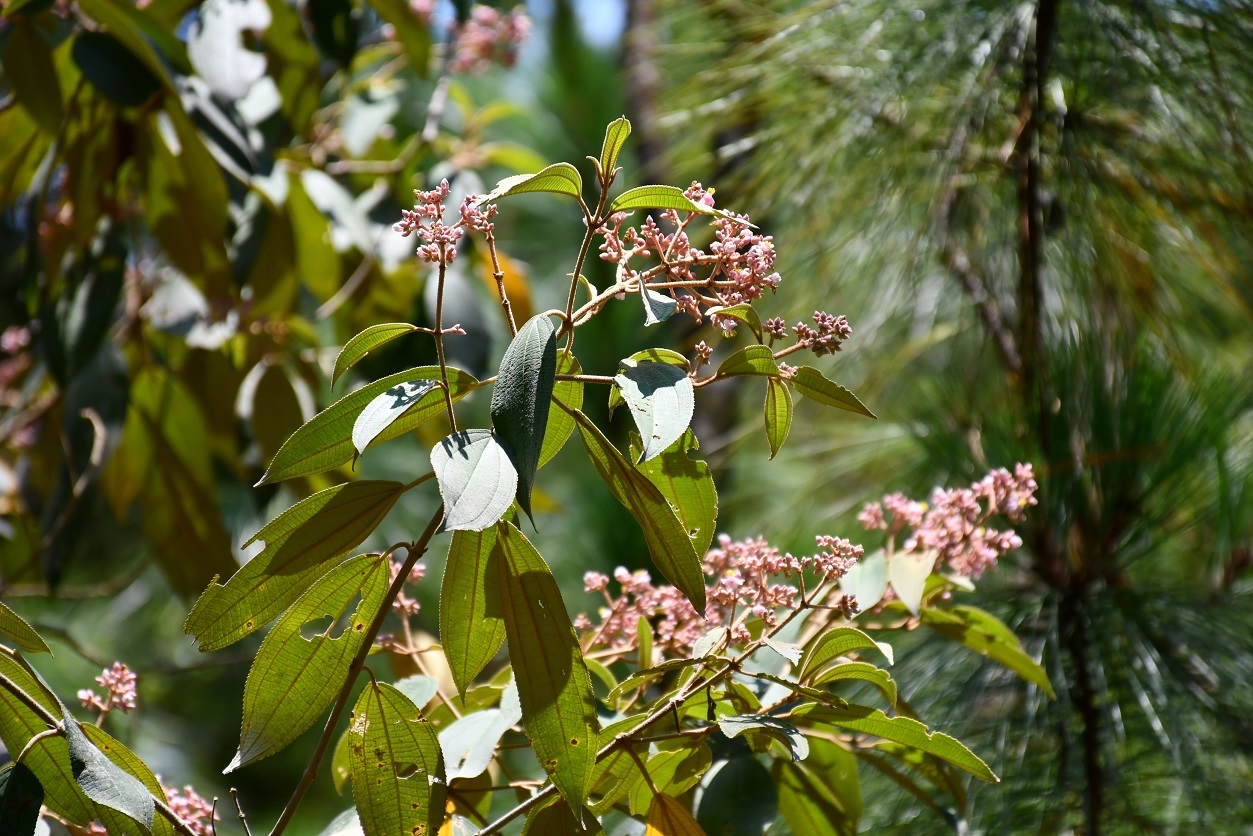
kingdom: Plantae
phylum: Tracheophyta
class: Magnoliopsida
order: Myrtales
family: Melastomataceae
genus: Miconia
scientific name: Miconia xalapensis
